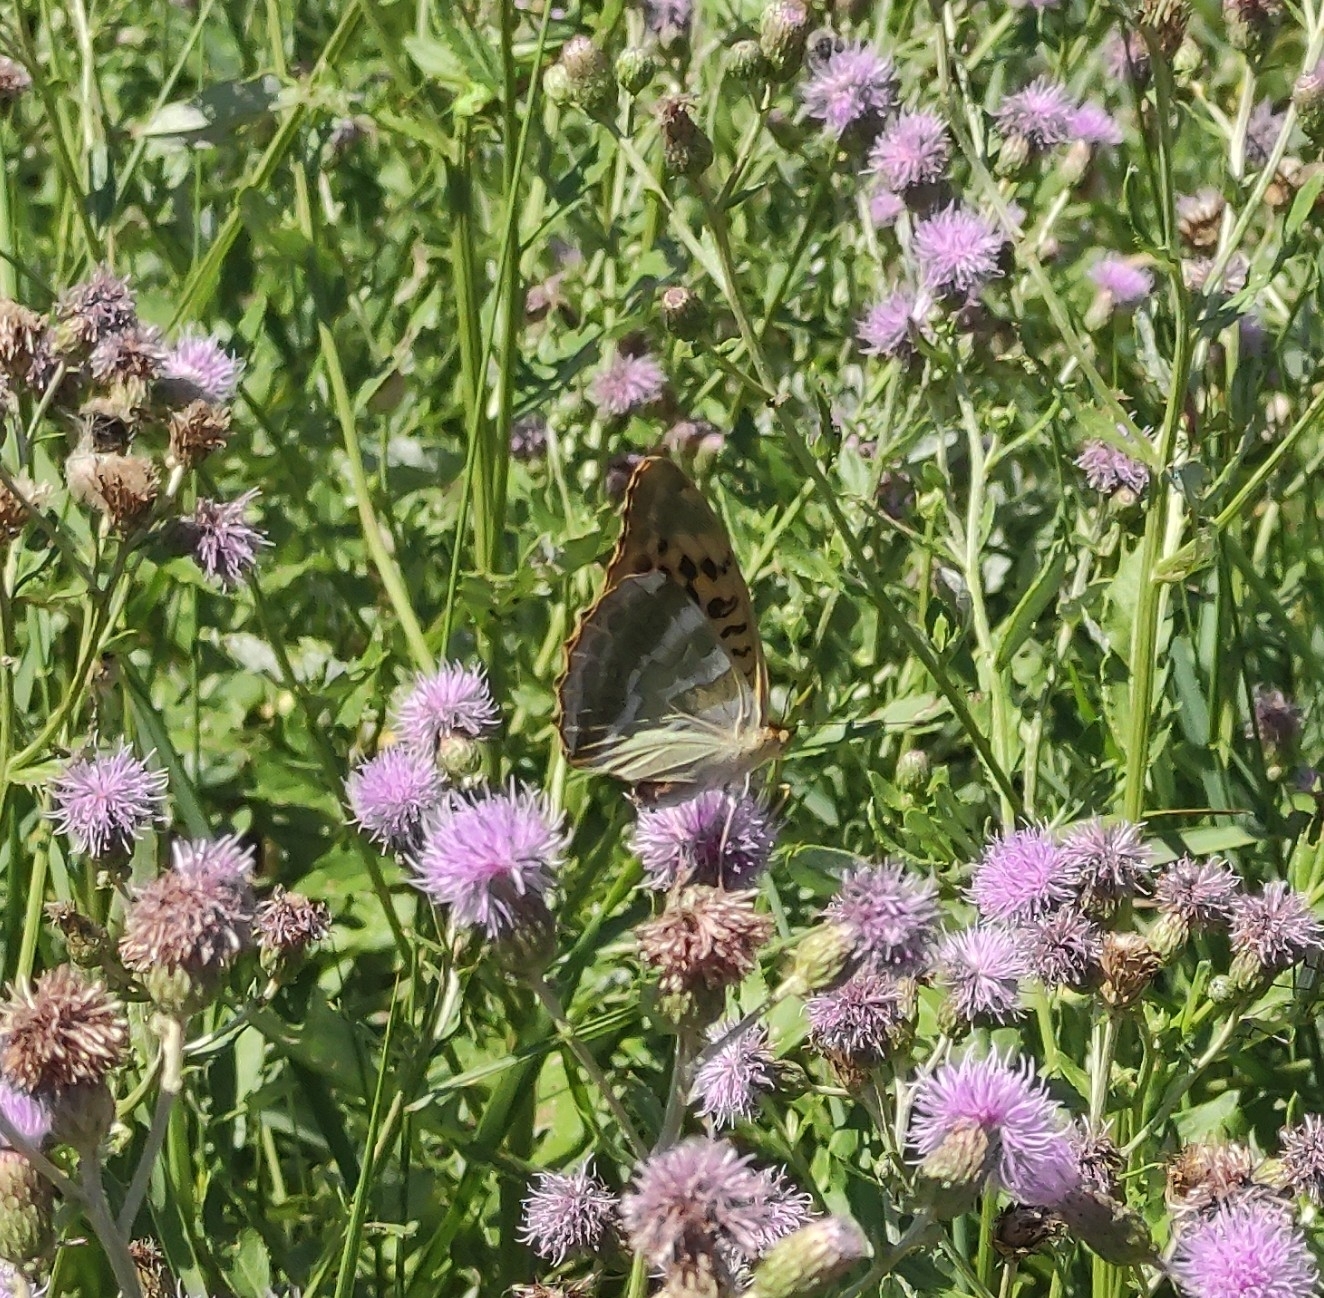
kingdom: Animalia
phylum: Arthropoda
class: Insecta
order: Lepidoptera
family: Nymphalidae
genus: Argynnis
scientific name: Argynnis paphia
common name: Silver-washed fritillary
